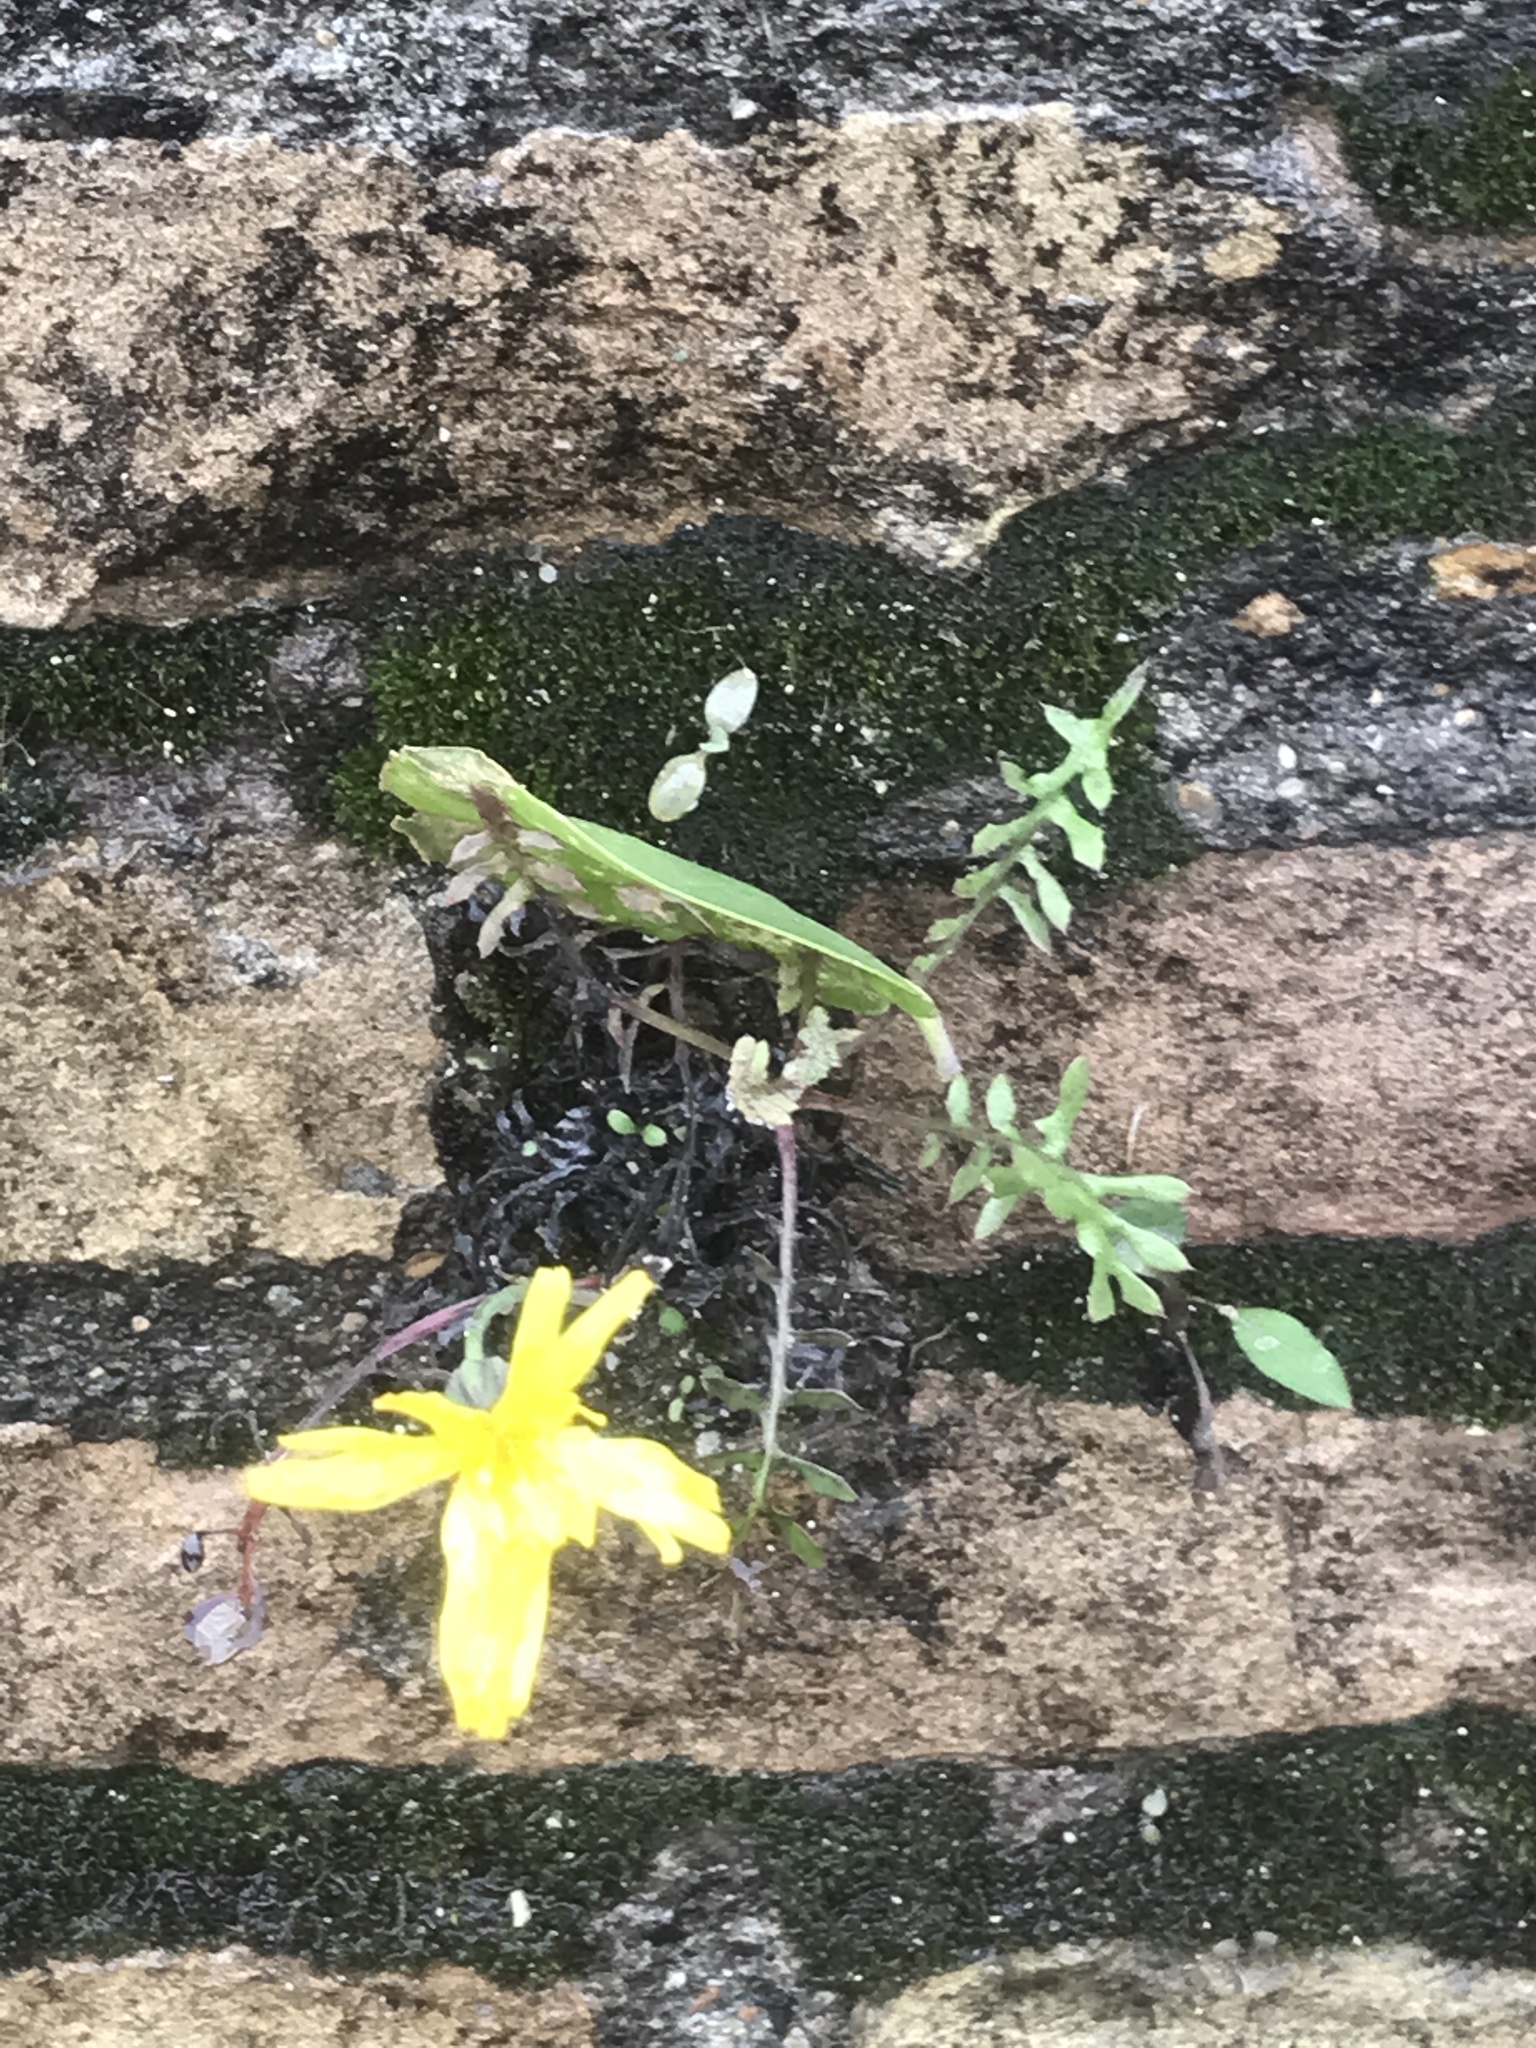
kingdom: Plantae
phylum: Tracheophyta
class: Magnoliopsida
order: Asterales
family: Asteraceae
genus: Sonchus
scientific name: Sonchus tenerrimus
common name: Clammy sowthistle
